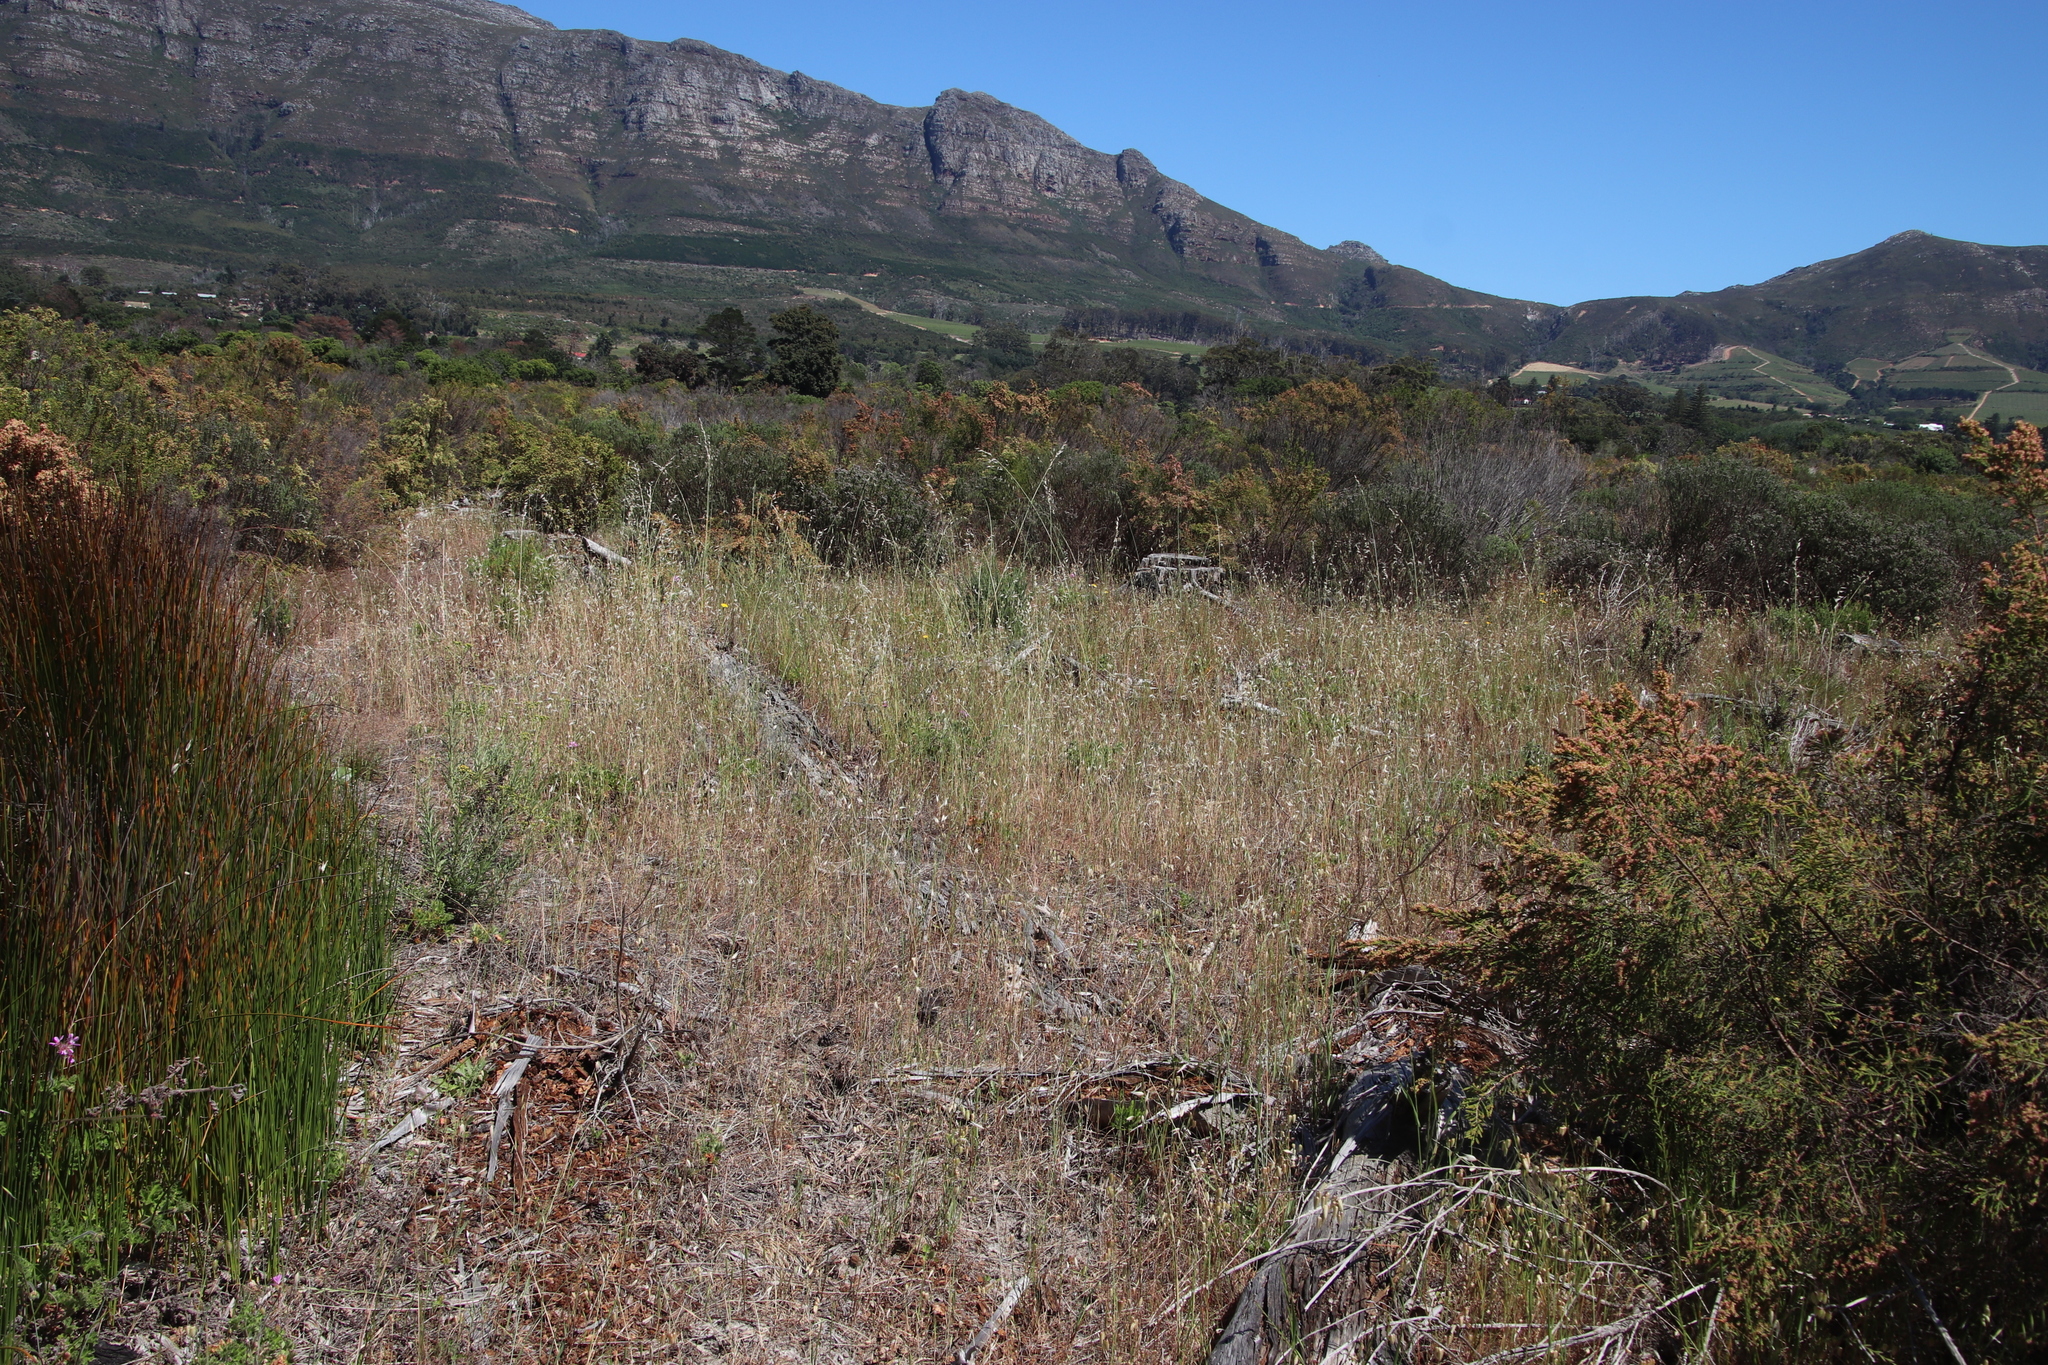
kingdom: Plantae
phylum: Tracheophyta
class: Liliopsida
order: Poales
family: Poaceae
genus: Briza
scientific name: Briza maxima
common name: Big quakinggrass
